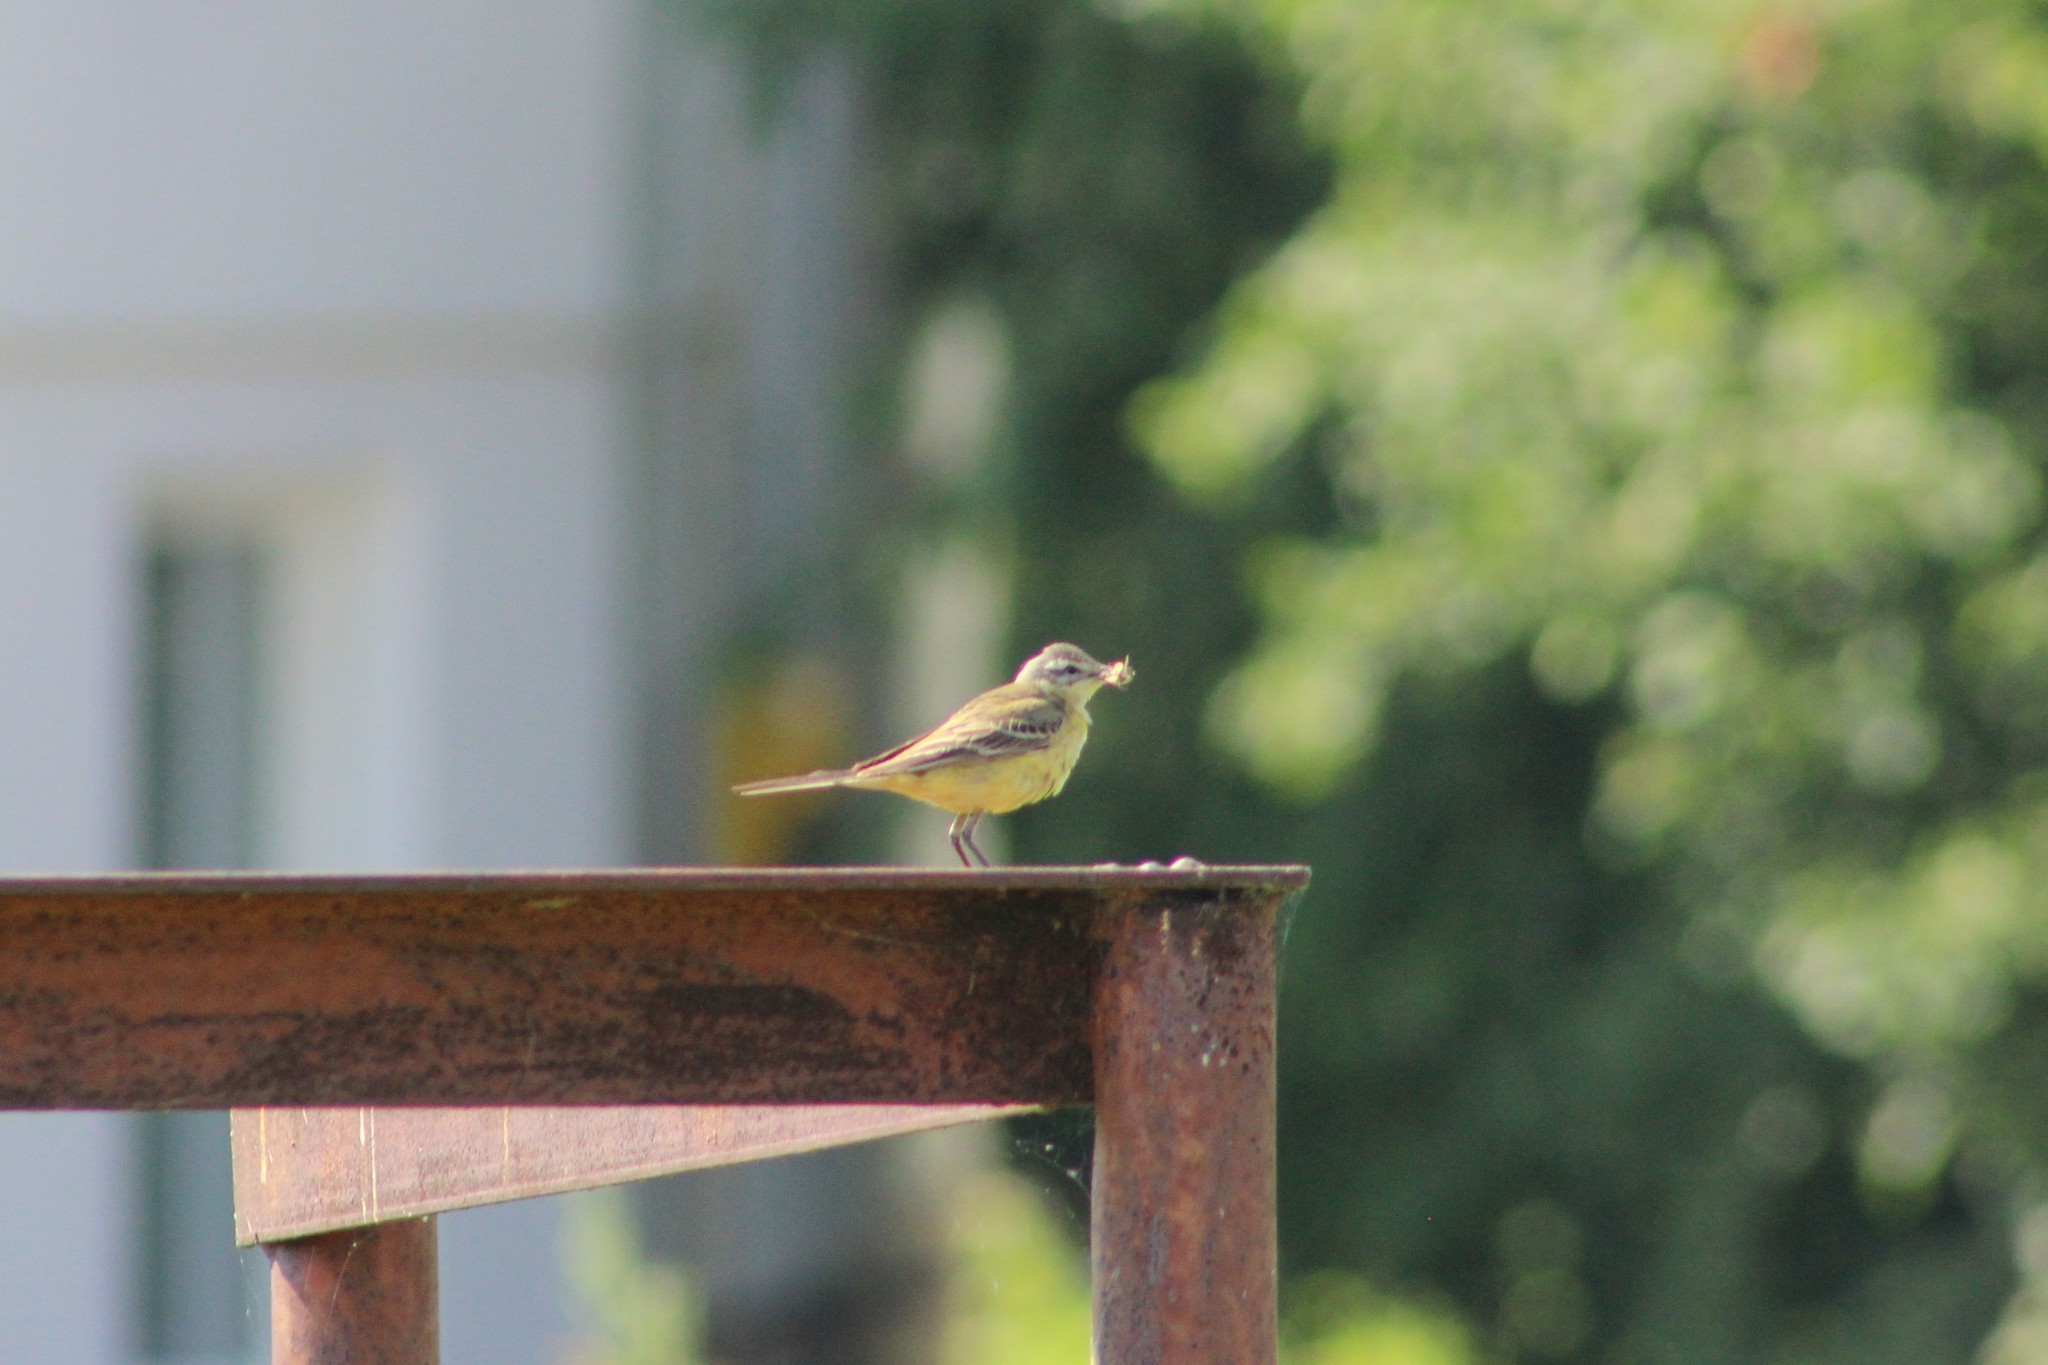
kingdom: Animalia
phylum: Chordata
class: Aves
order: Passeriformes
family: Motacillidae
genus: Motacilla
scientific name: Motacilla flava
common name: Western yellow wagtail
